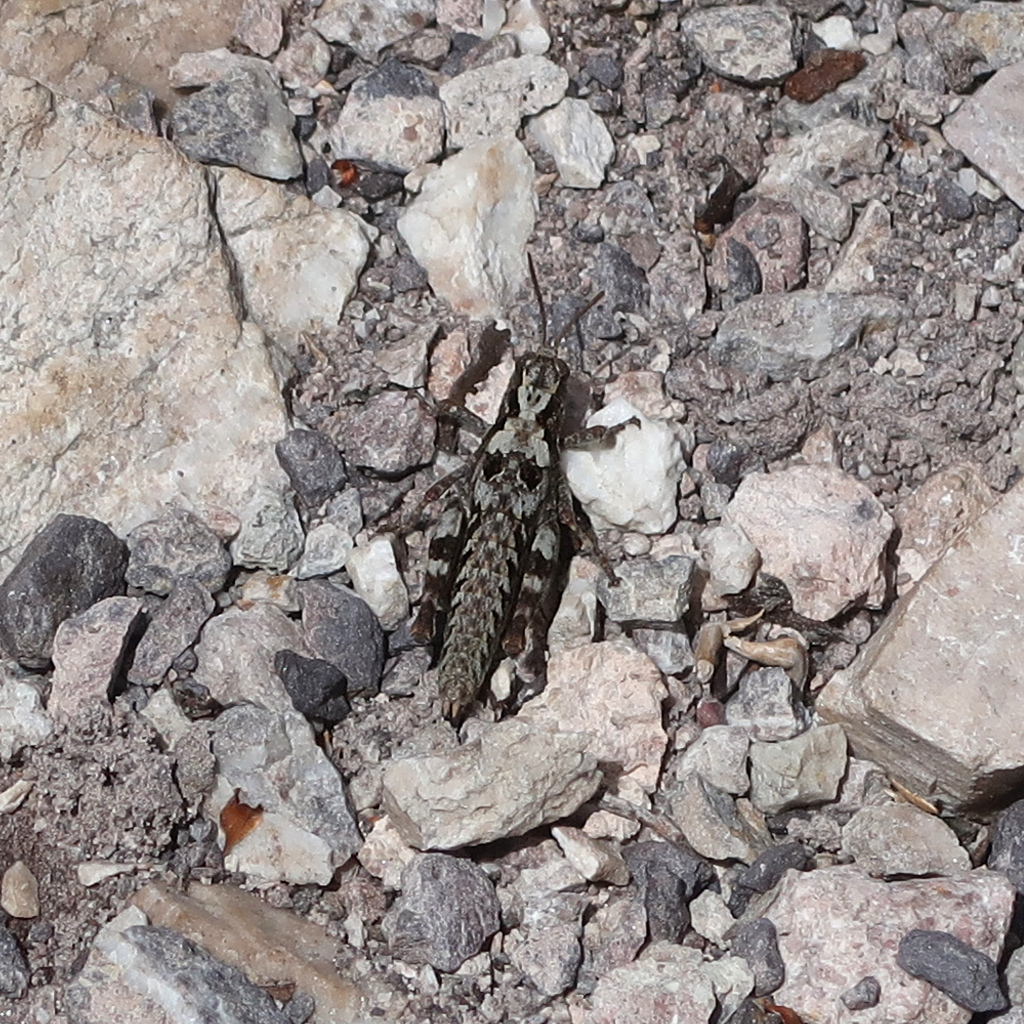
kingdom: Animalia
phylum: Arthropoda
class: Insecta
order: Orthoptera
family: Acrididae
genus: Tasmaniacris
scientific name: Tasmaniacris tasmaniensis
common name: Tasmanian grasshopper
